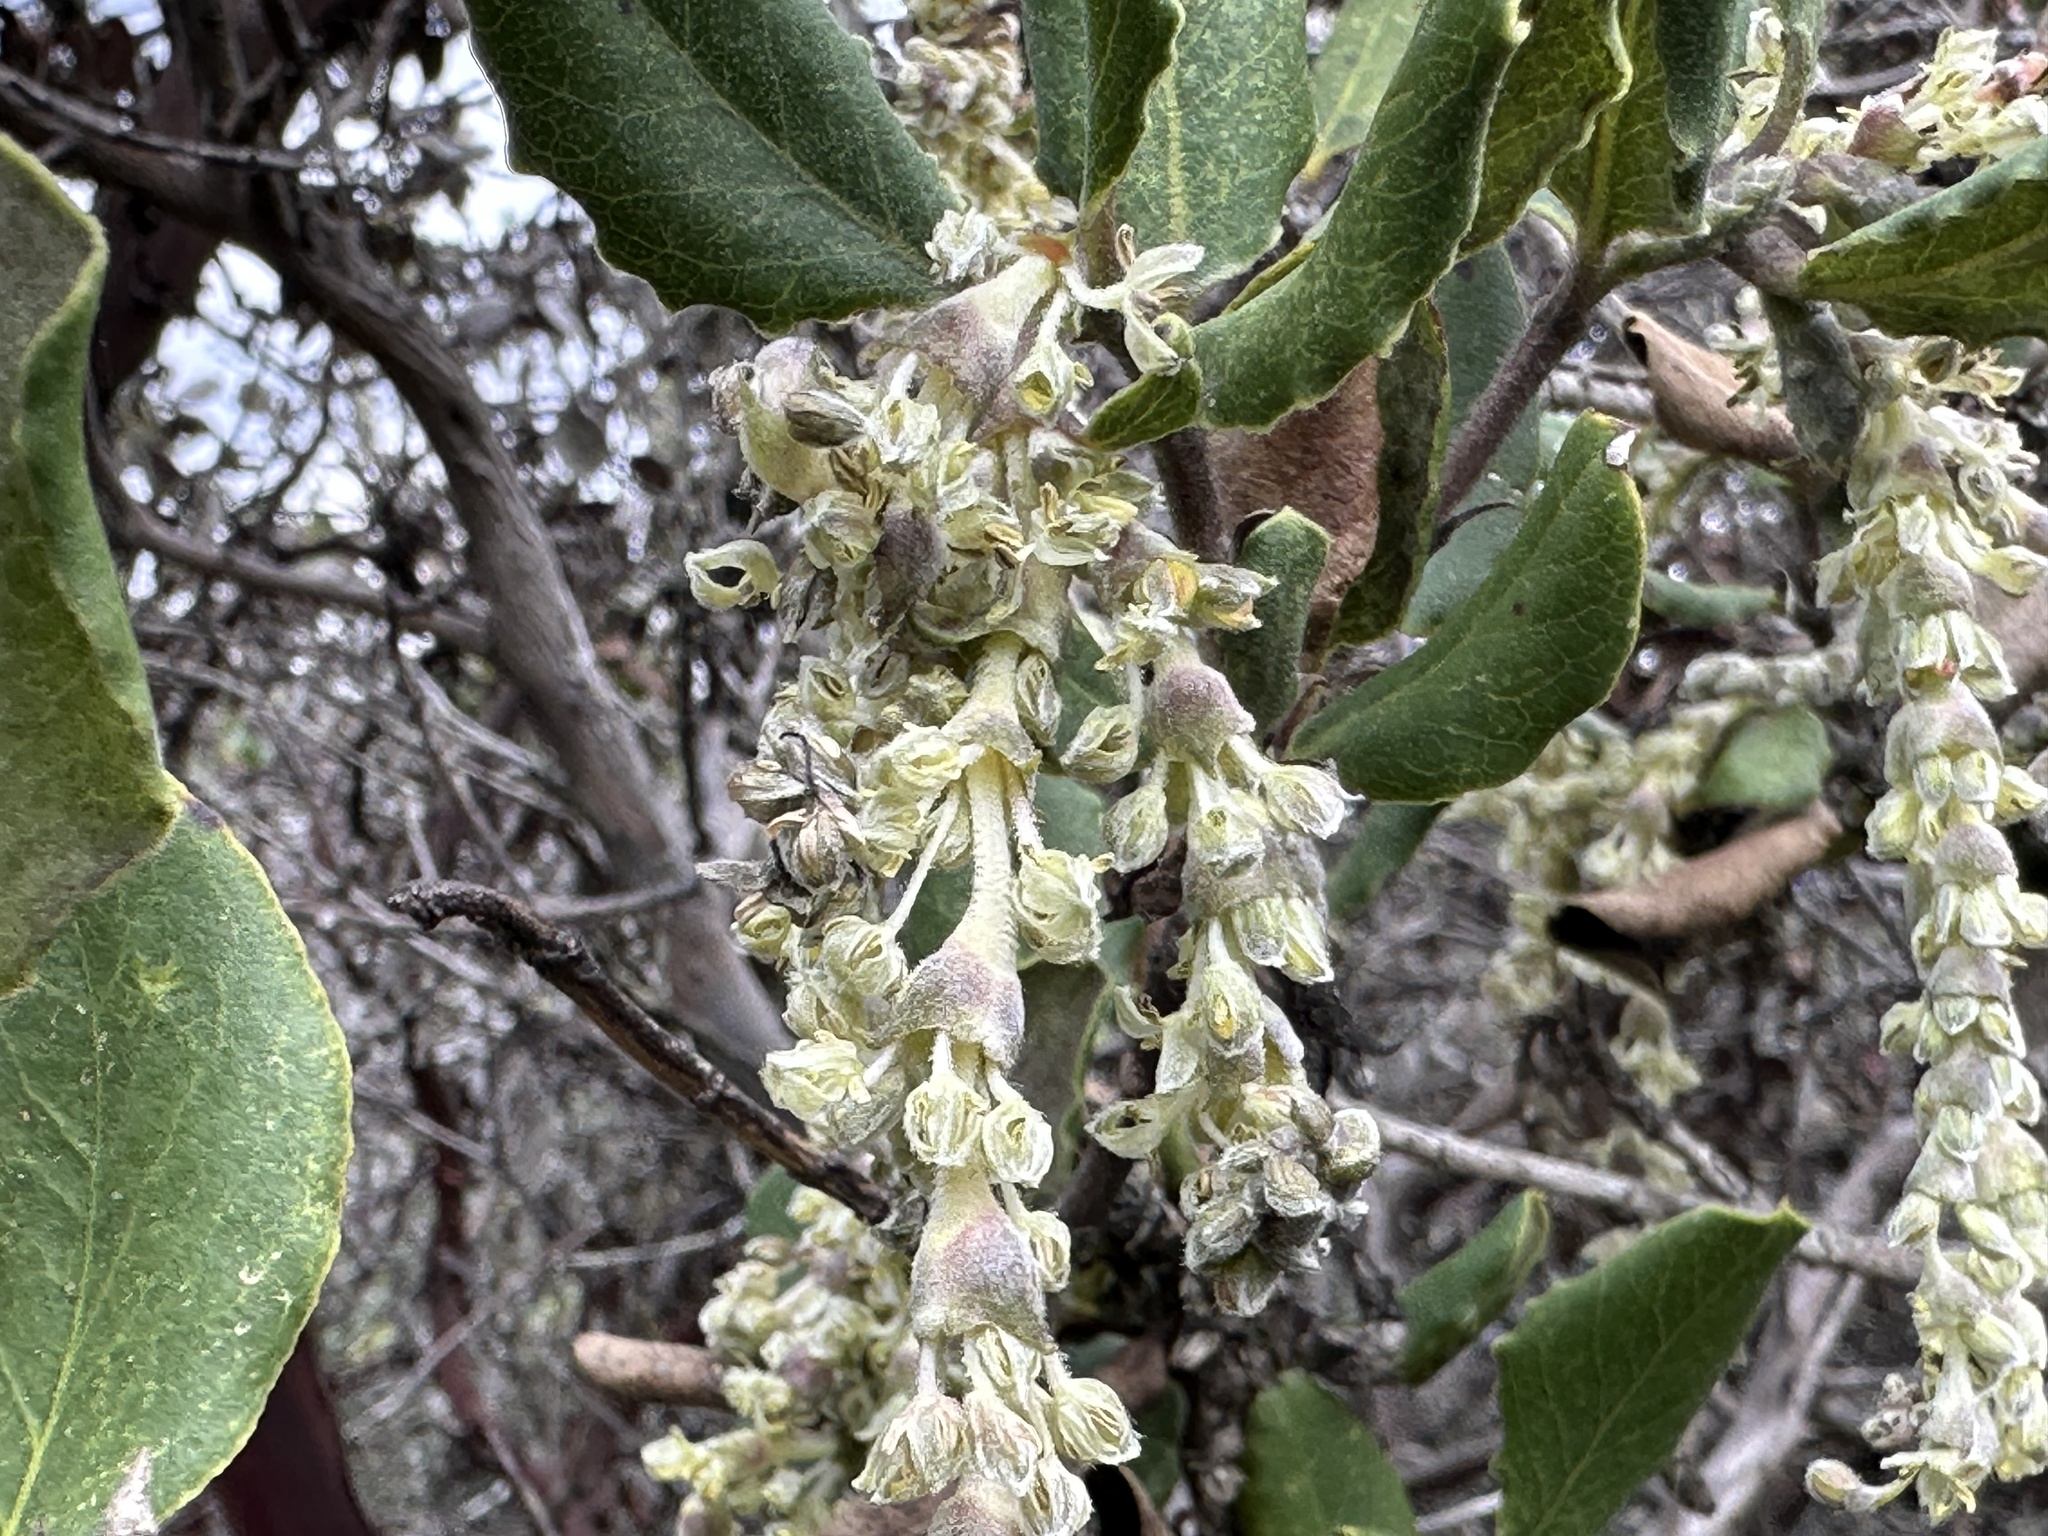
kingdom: Plantae
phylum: Tracheophyta
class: Magnoliopsida
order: Garryales
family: Garryaceae
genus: Garrya
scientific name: Garrya elliptica
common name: Silk-tassel
